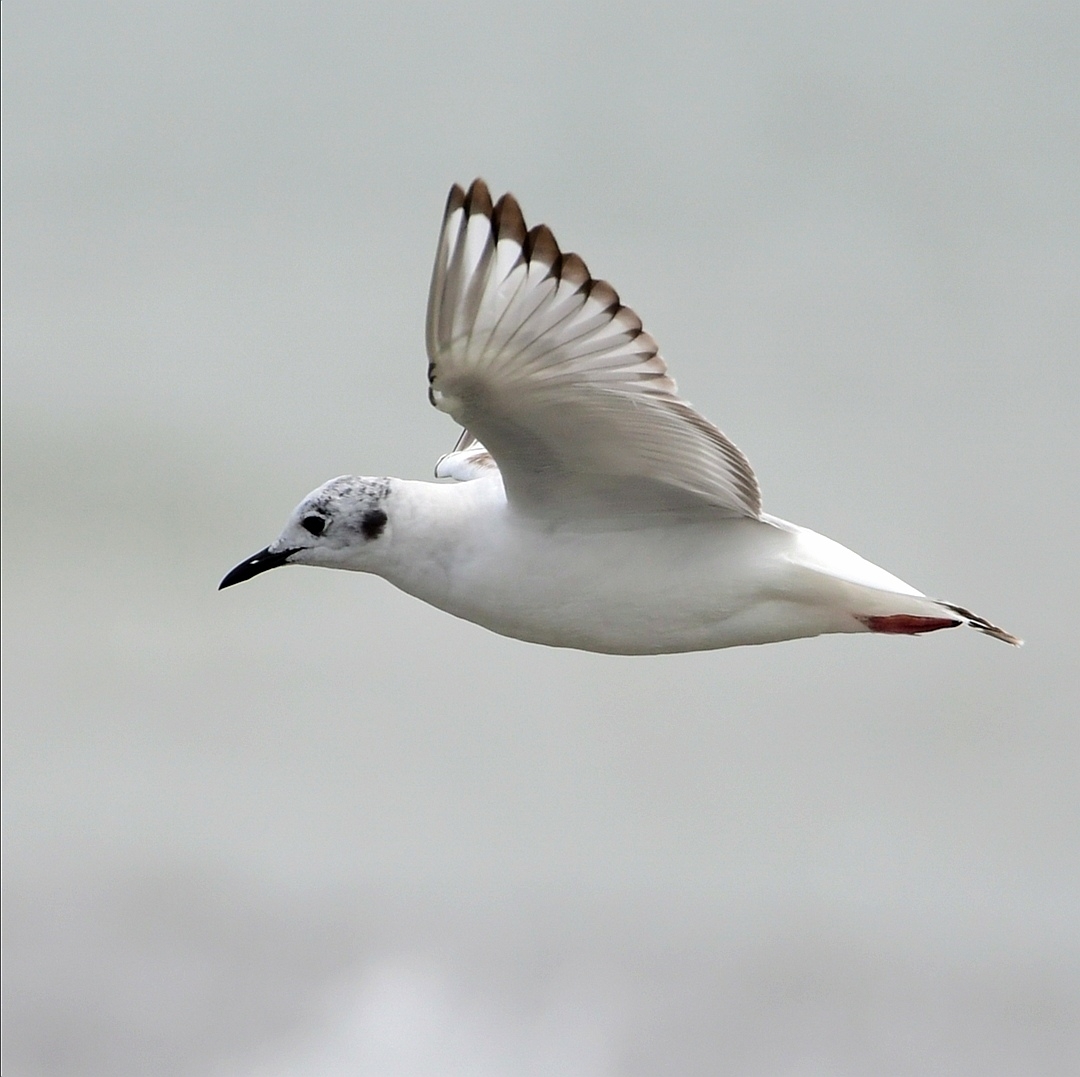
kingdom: Animalia
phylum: Chordata
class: Aves
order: Charadriiformes
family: Laridae
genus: Chroicocephalus
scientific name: Chroicocephalus philadelphia
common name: Bonaparte's gull
